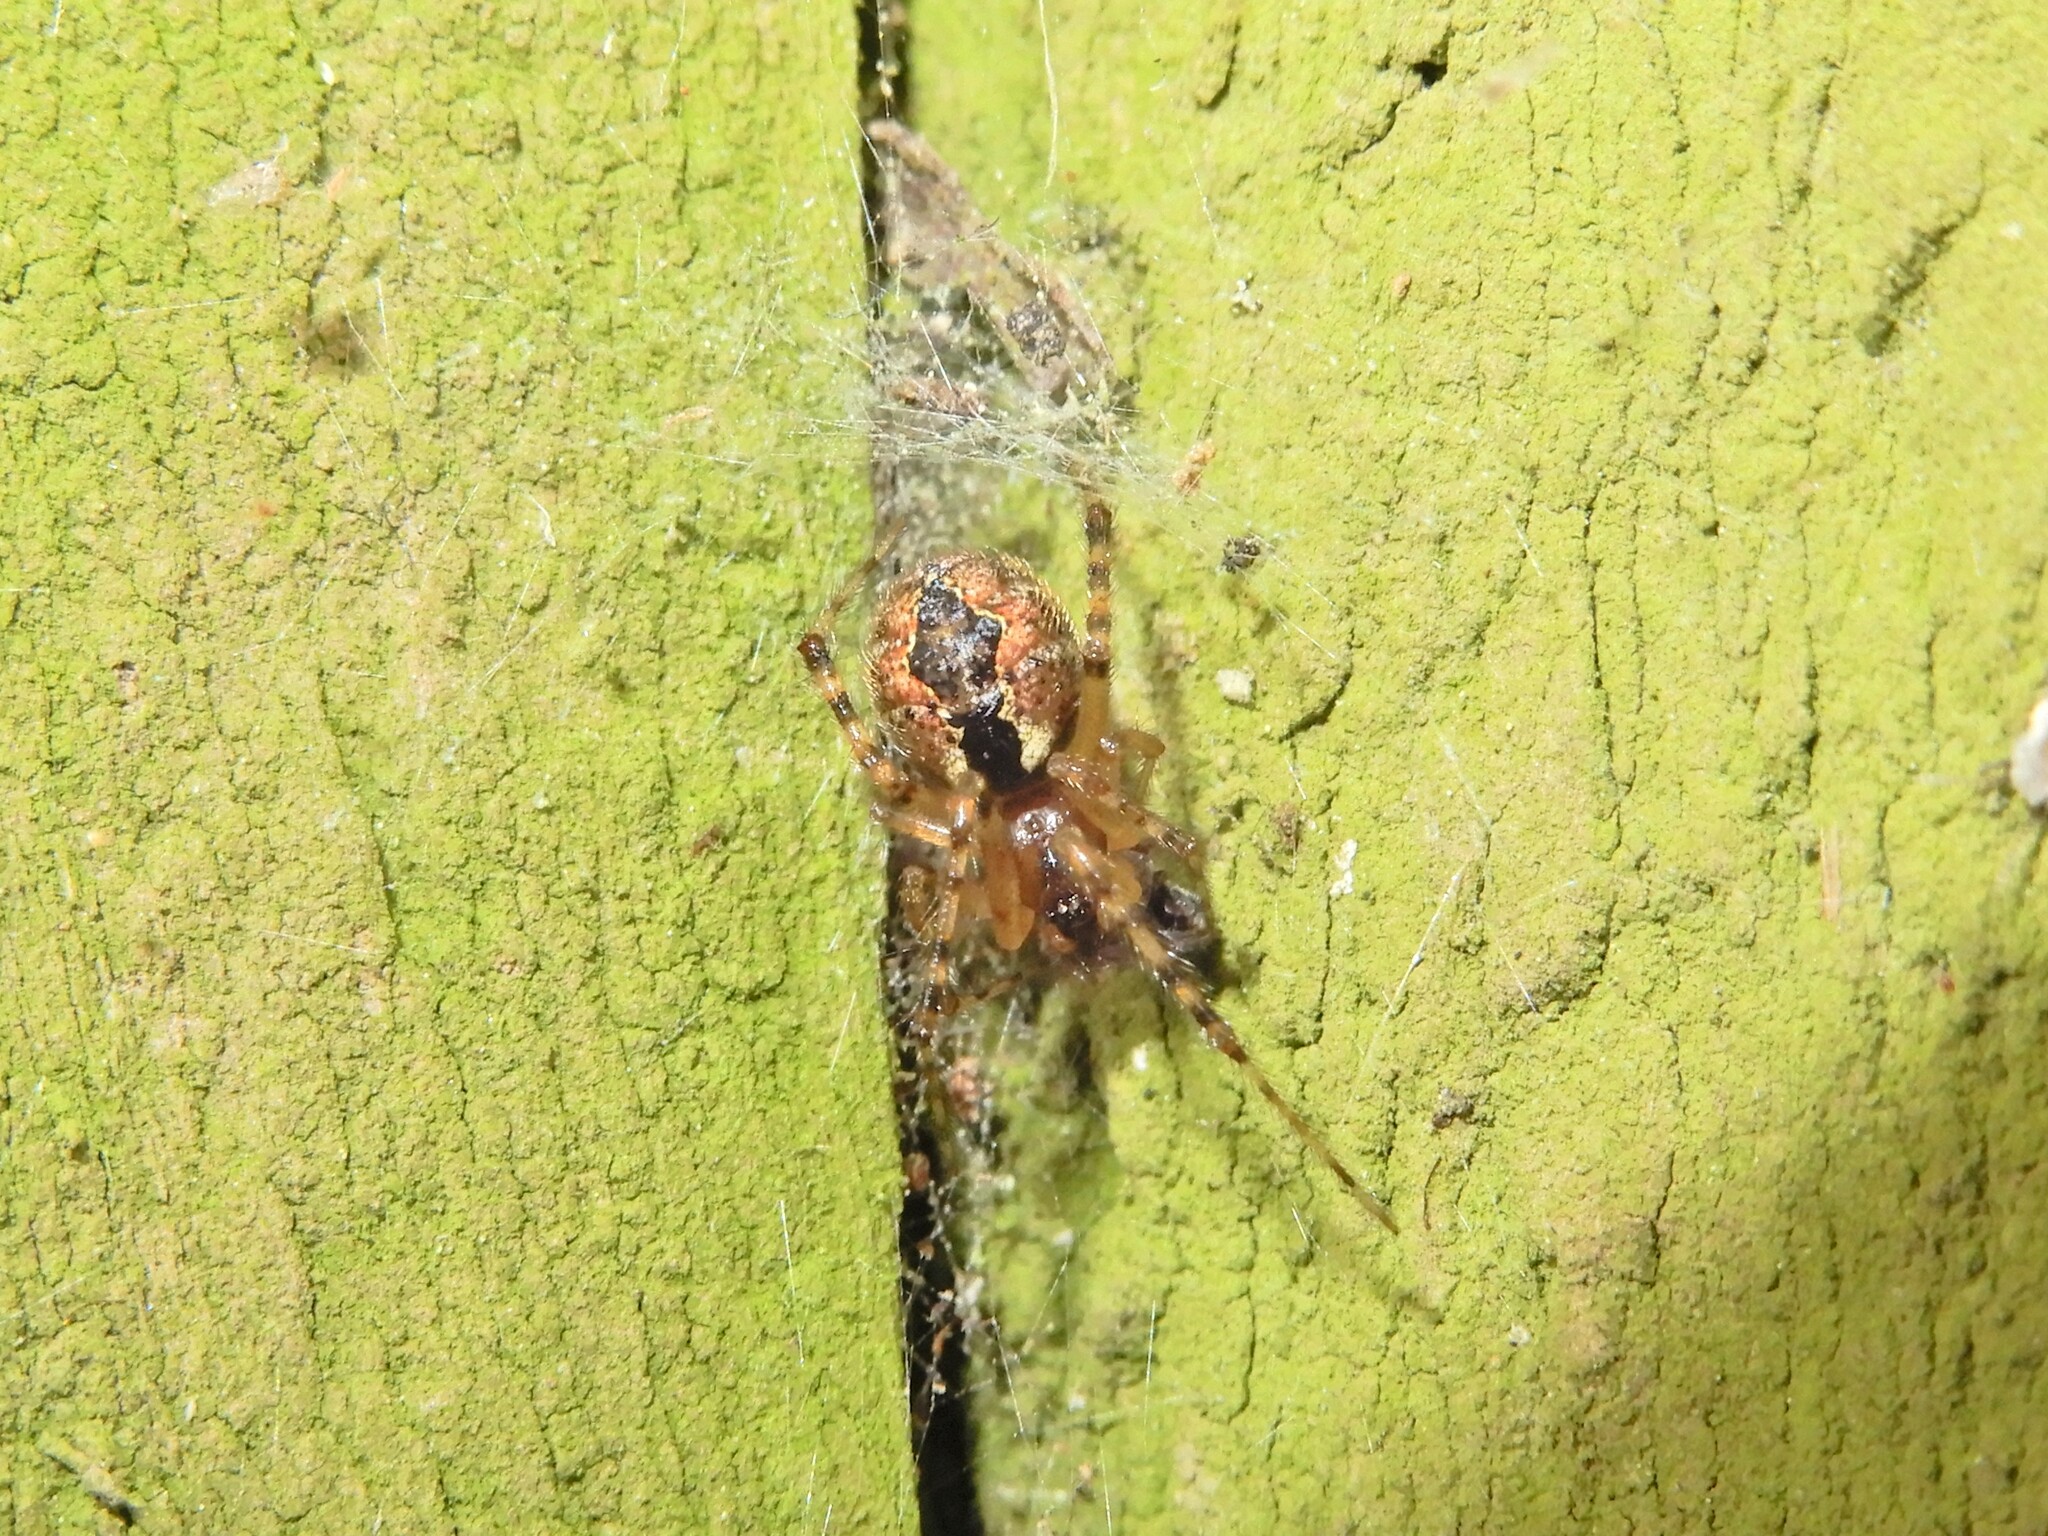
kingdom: Animalia
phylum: Arthropoda
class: Arachnida
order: Araneae
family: Theridiidae
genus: Cryptachaea
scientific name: Cryptachaea veruculata
